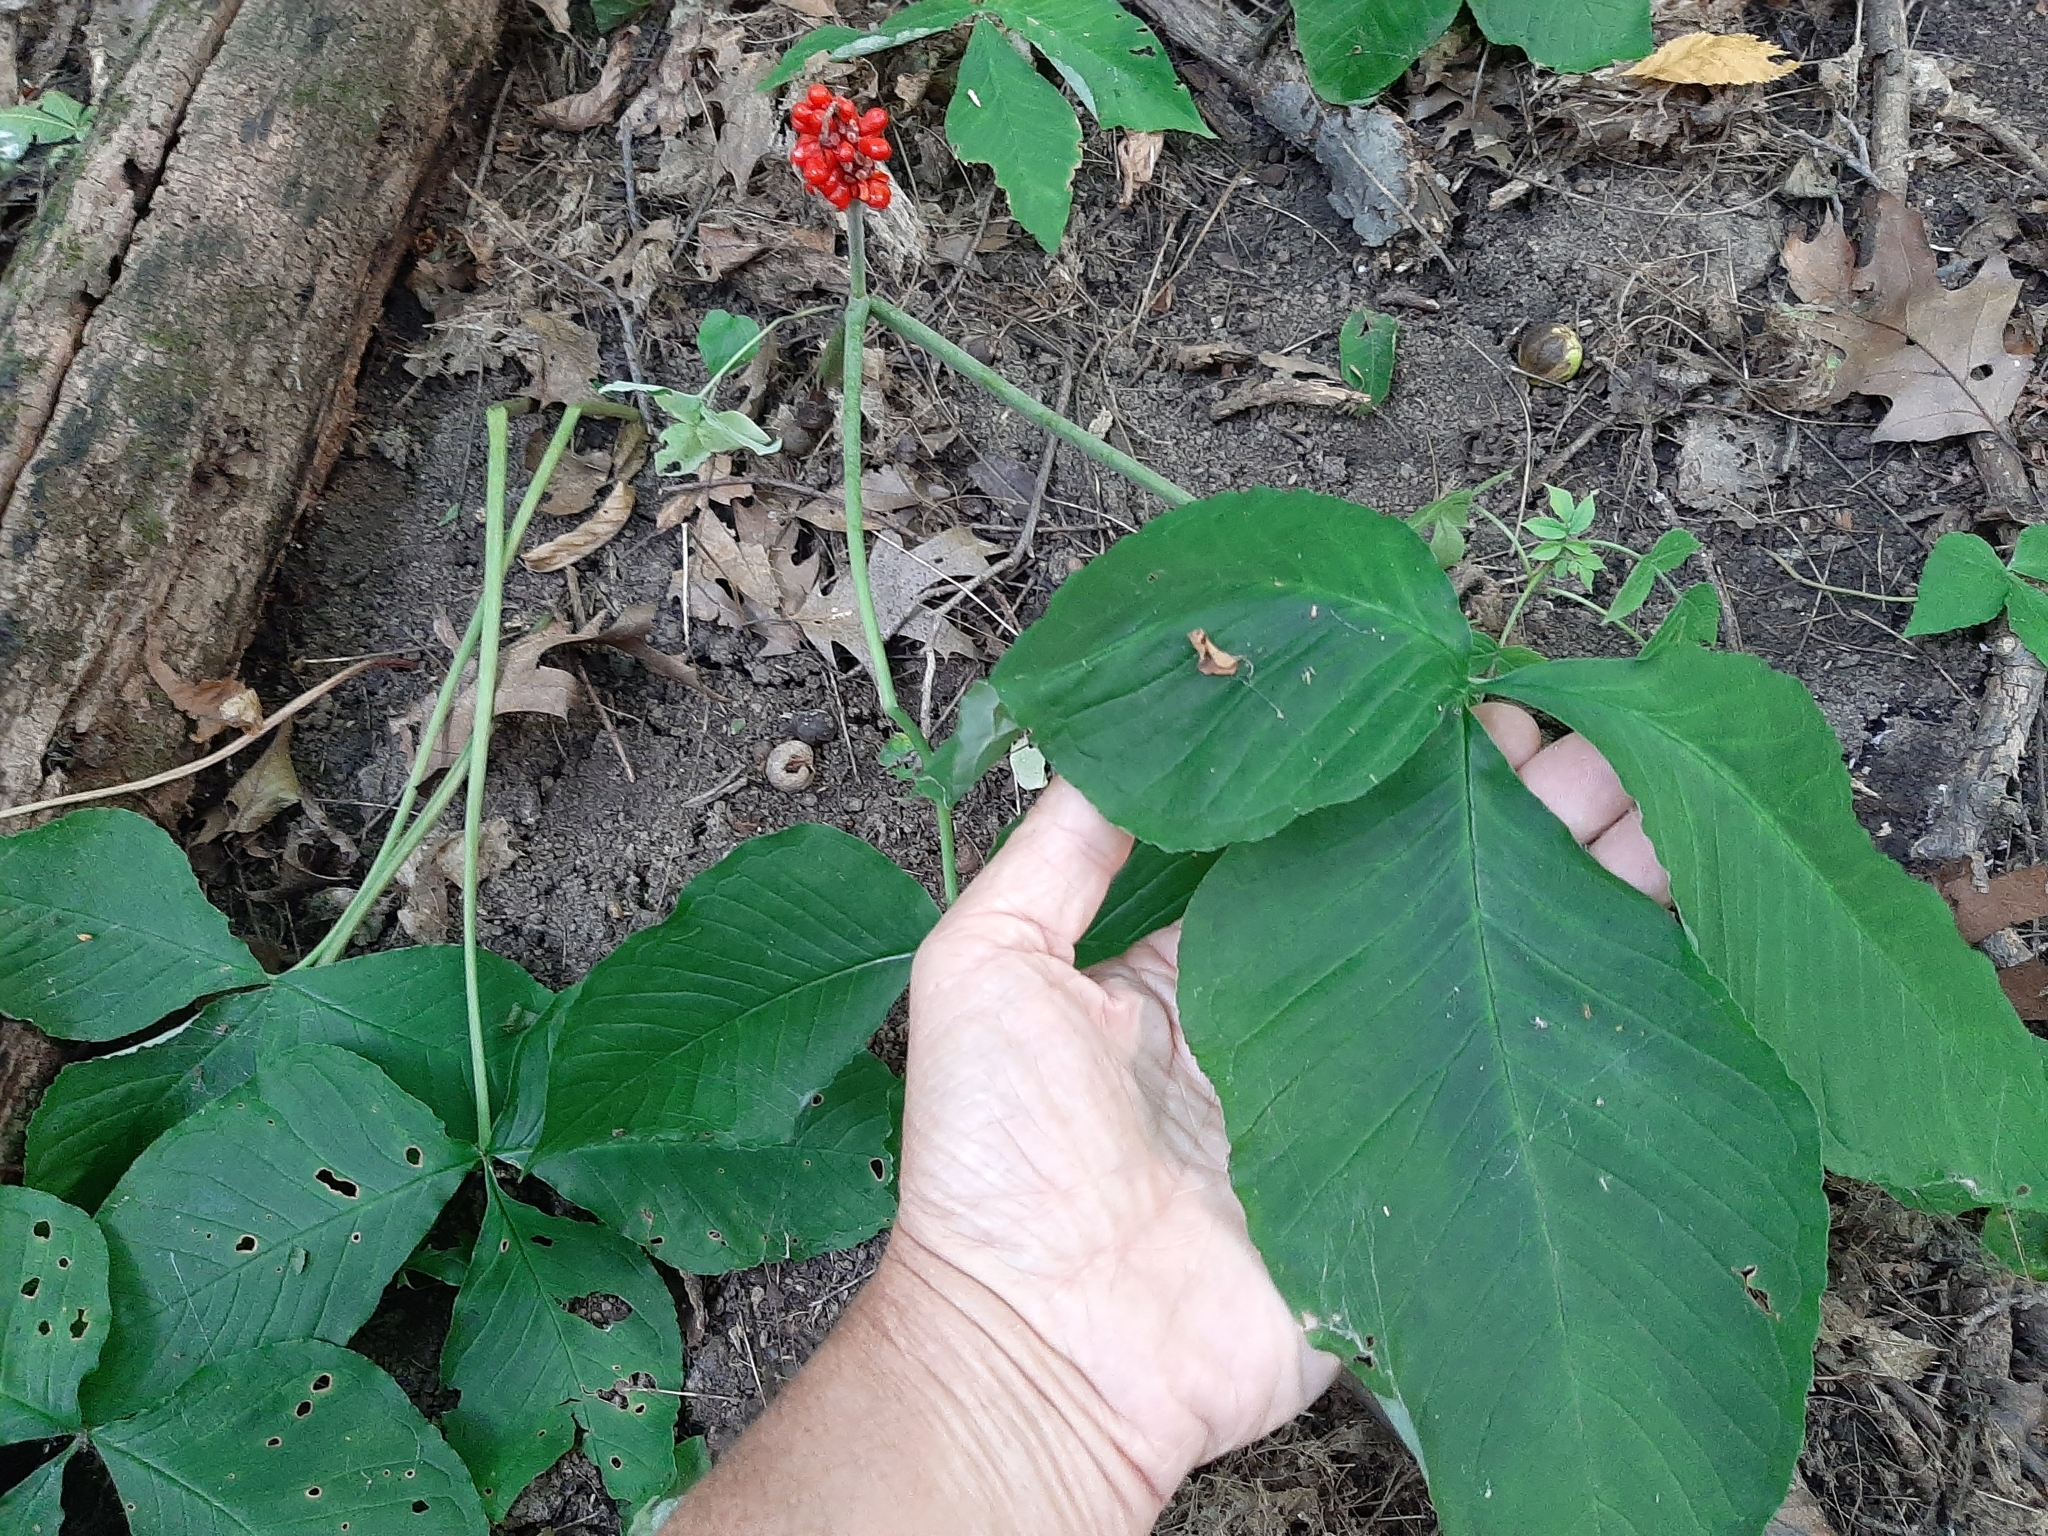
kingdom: Plantae
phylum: Tracheophyta
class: Liliopsida
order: Alismatales
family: Araceae
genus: Arisaema
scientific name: Arisaema triphyllum
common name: Jack-in-the-pulpit
